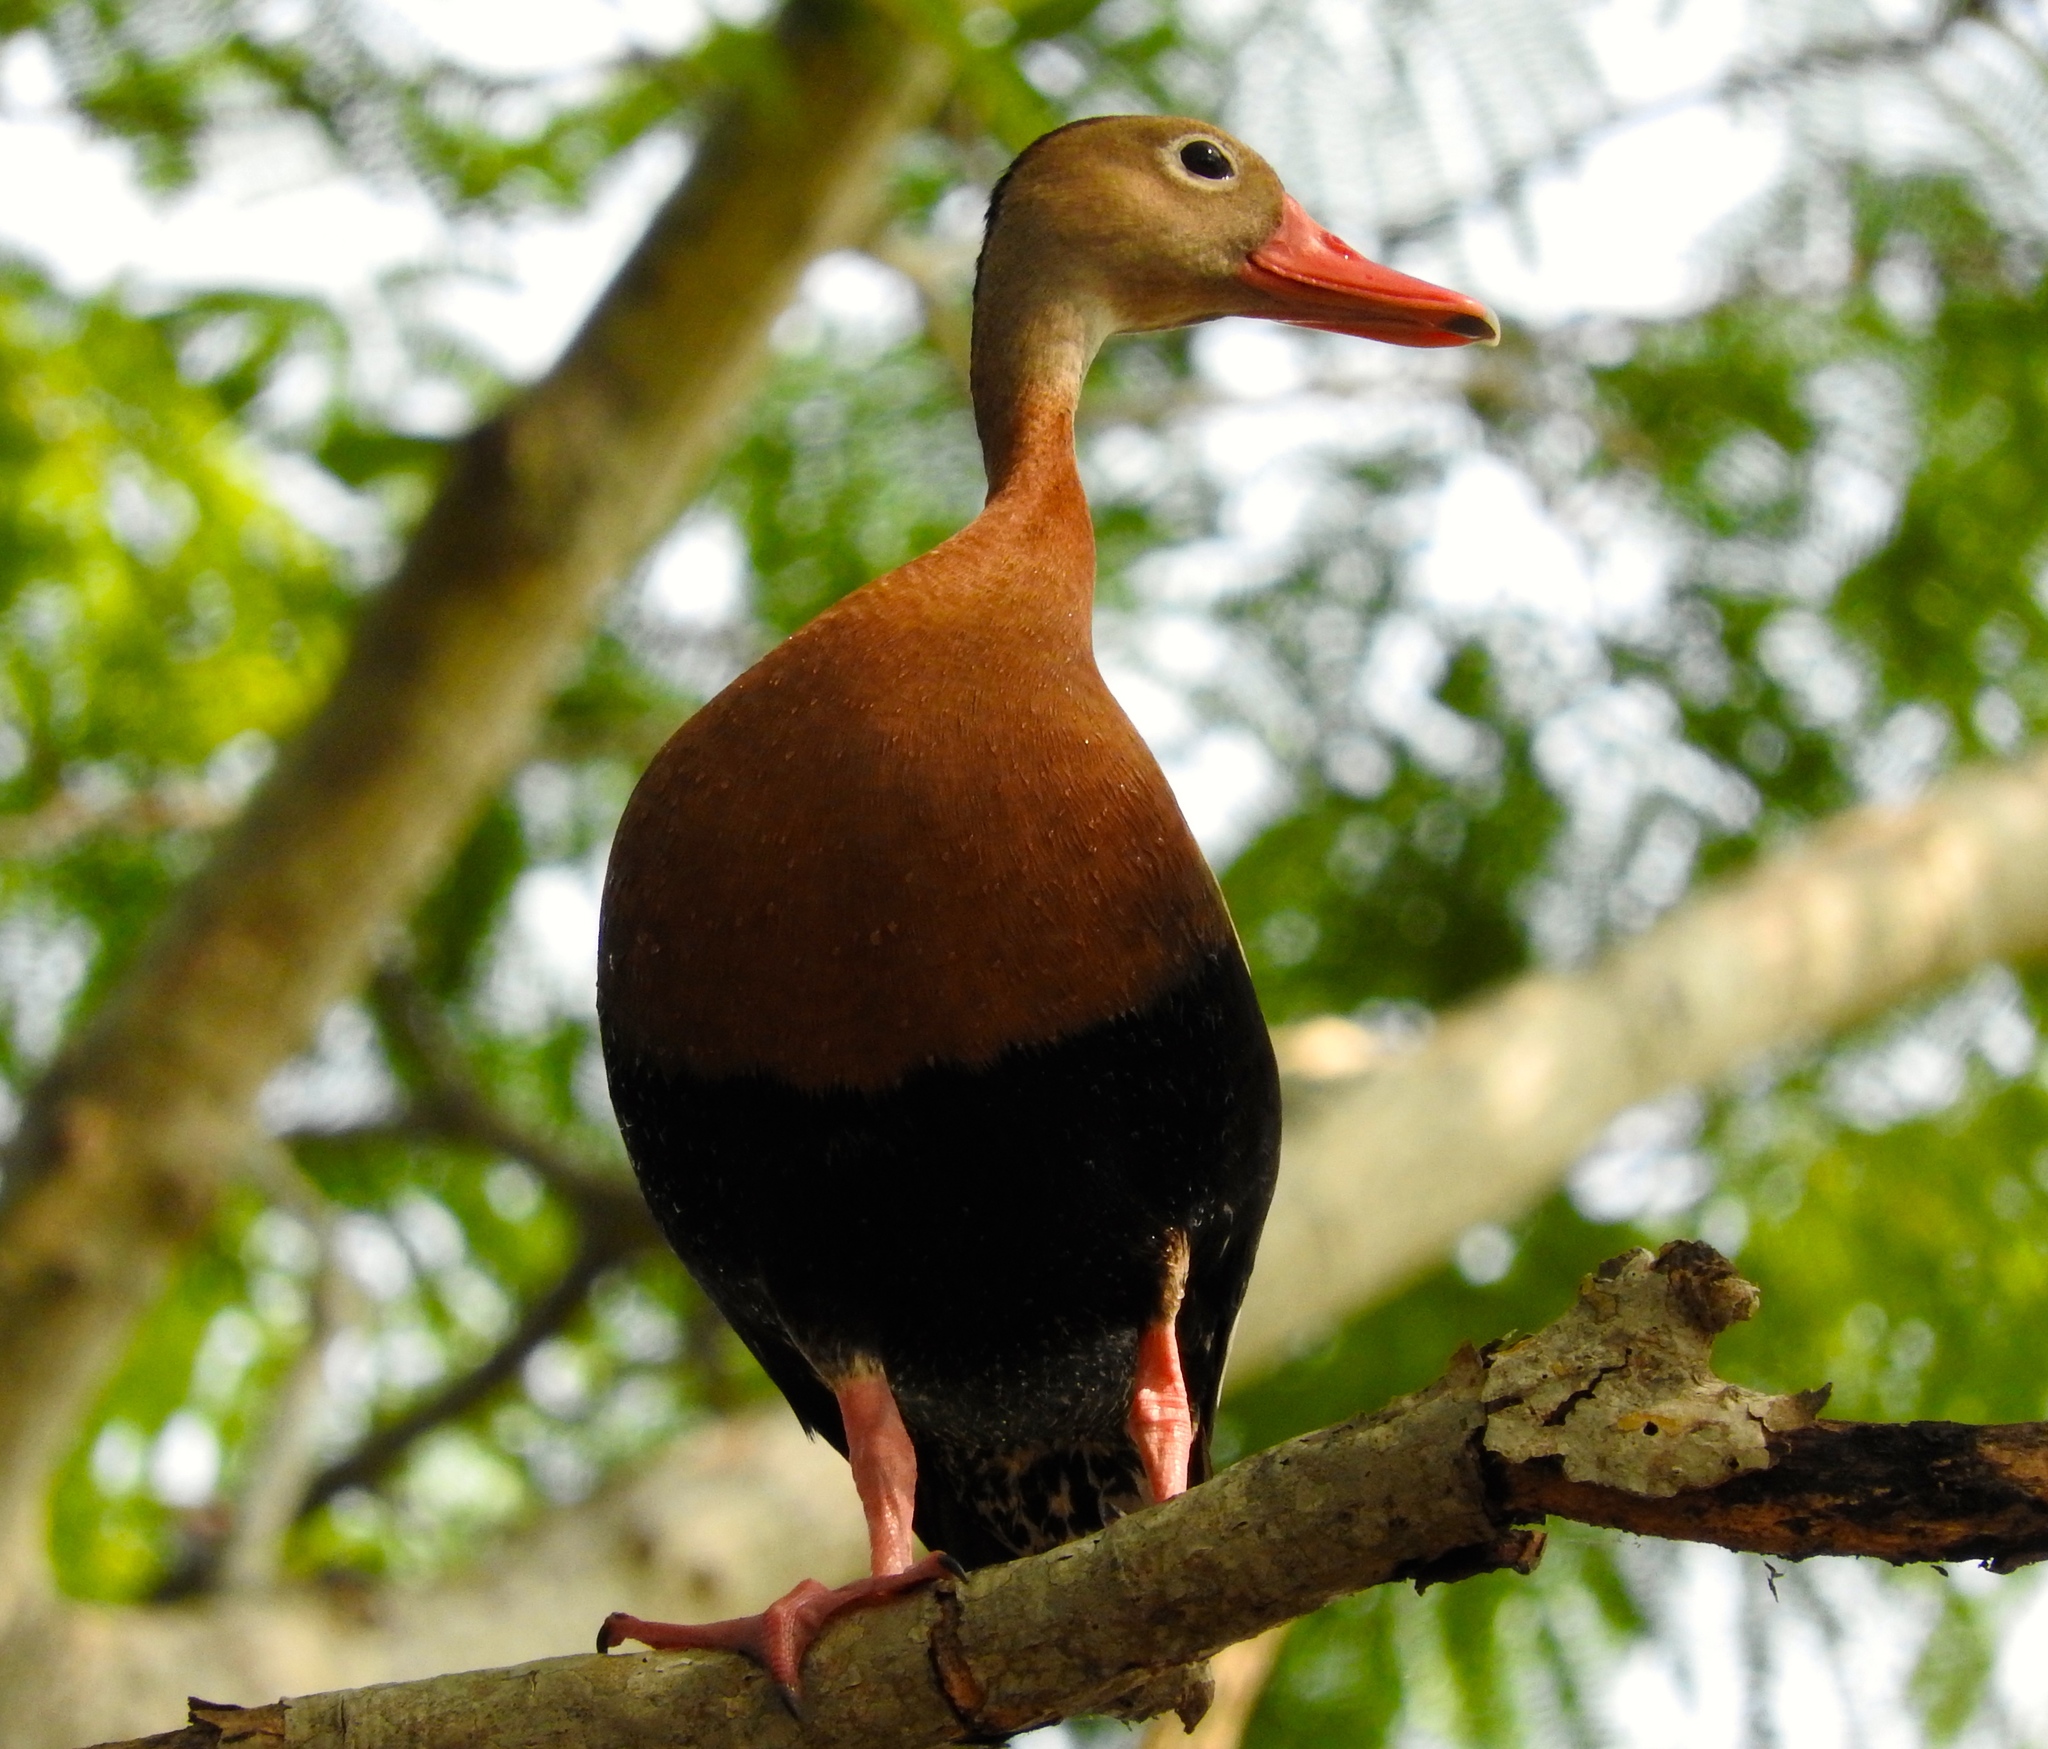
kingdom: Animalia
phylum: Chordata
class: Aves
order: Anseriformes
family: Anatidae
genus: Dendrocygna
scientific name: Dendrocygna autumnalis
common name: Black-bellied whistling duck
